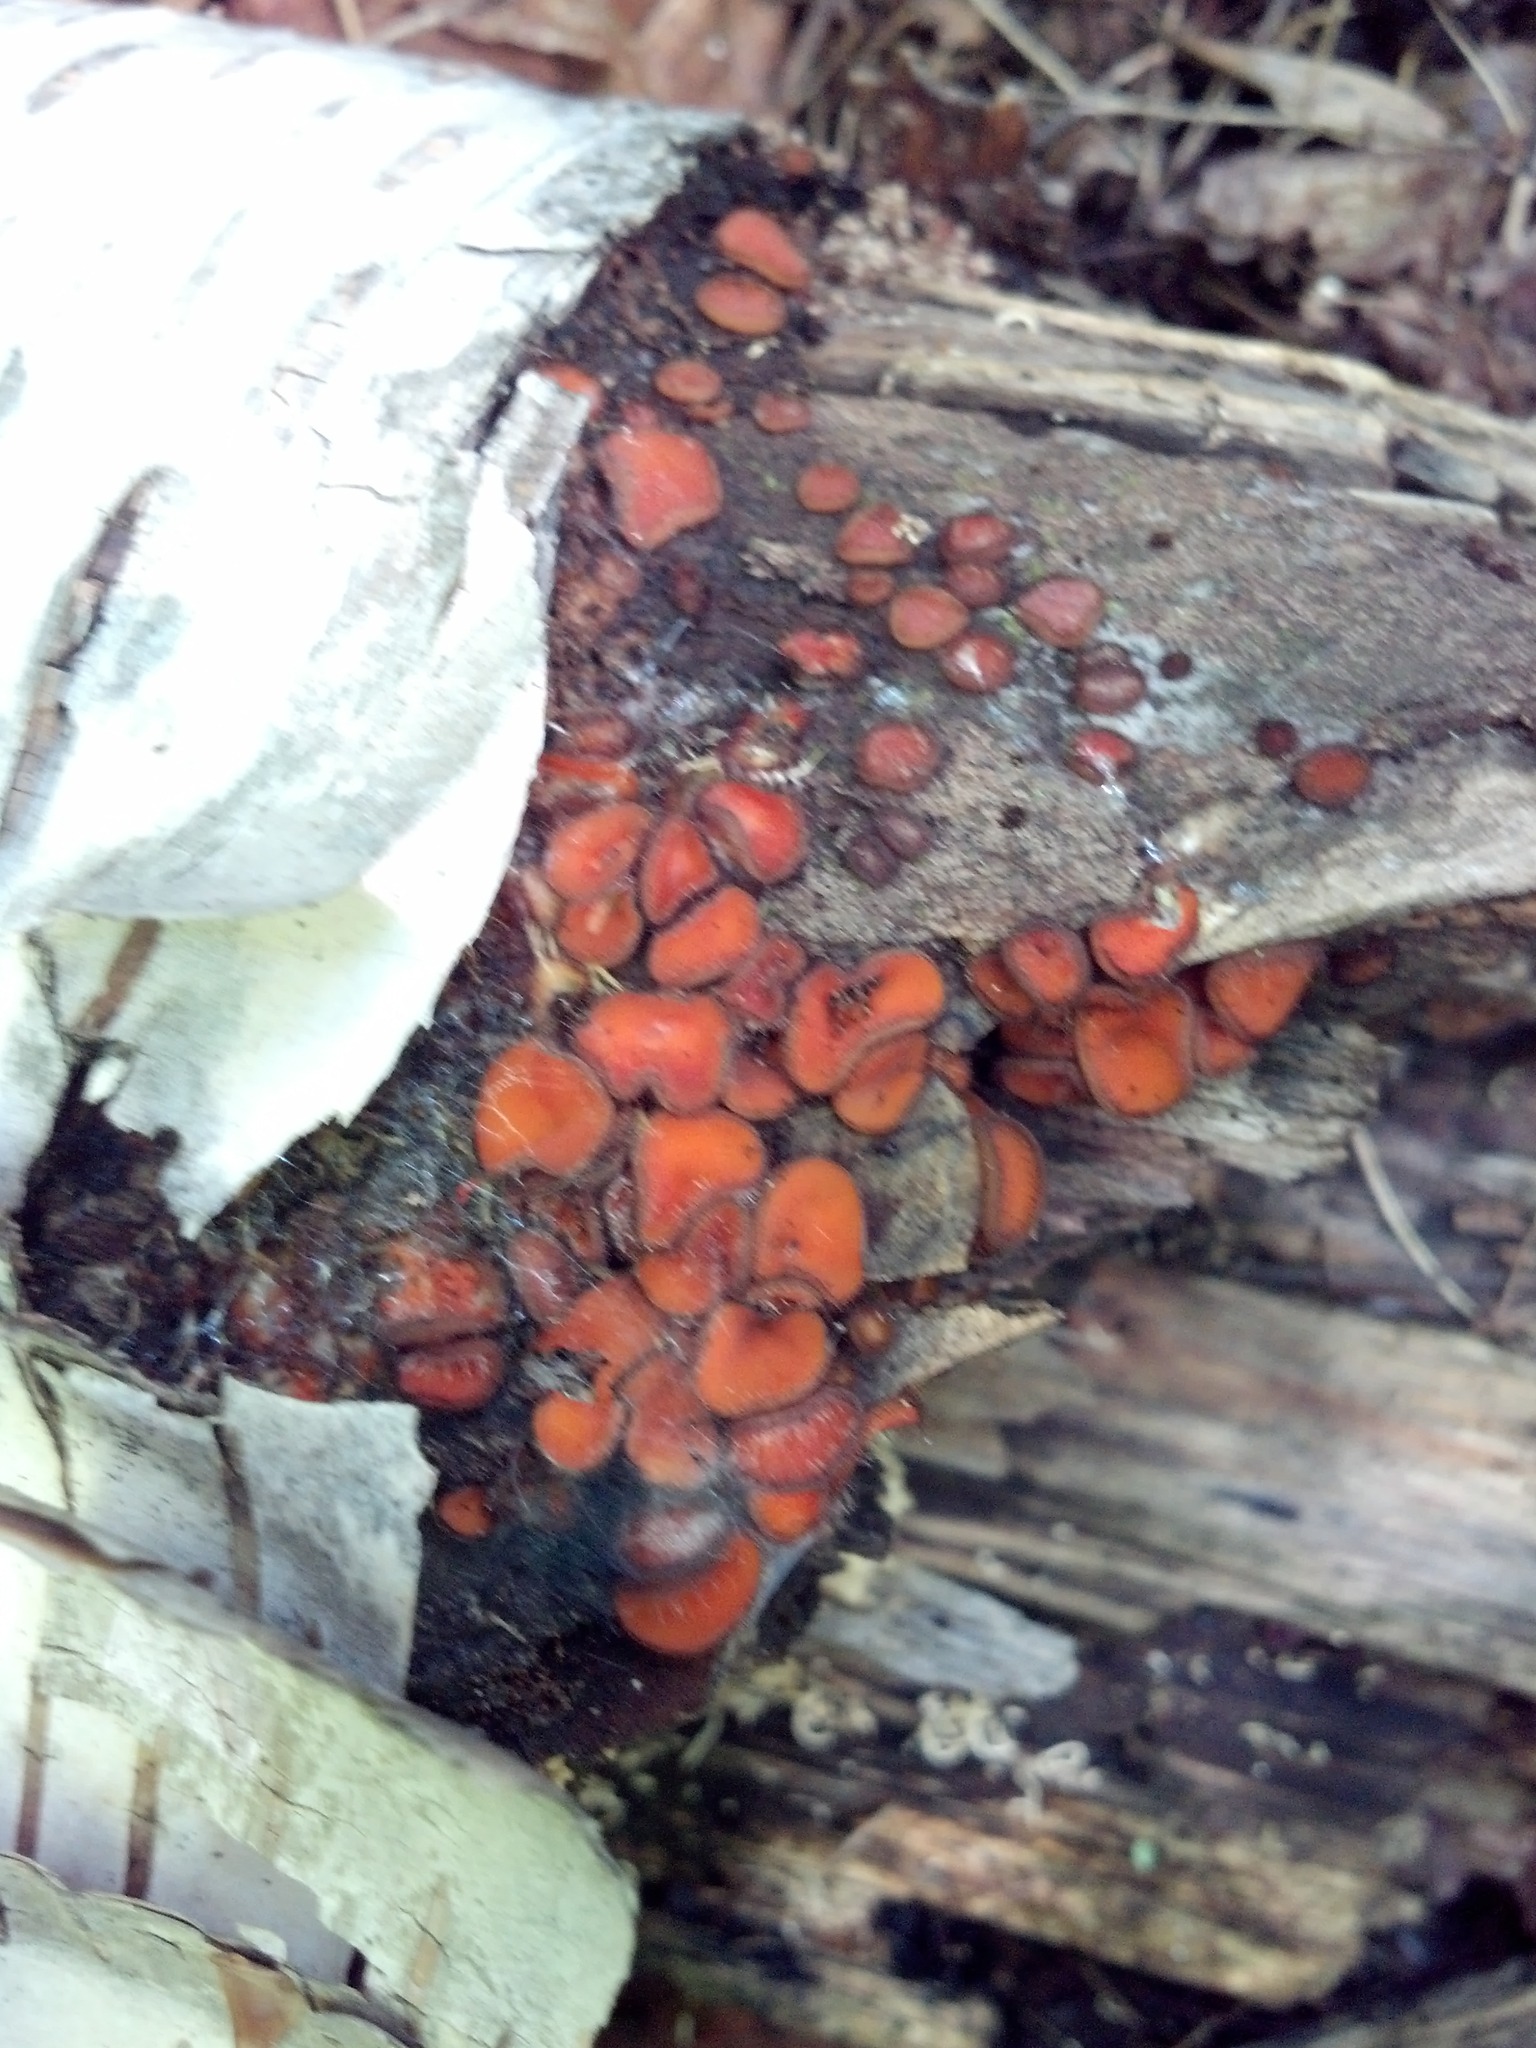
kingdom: Fungi
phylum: Ascomycota
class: Pezizomycetes
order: Pezizales
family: Pyronemataceae
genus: Scutellinia
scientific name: Scutellinia scutellata
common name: Common eyelash
